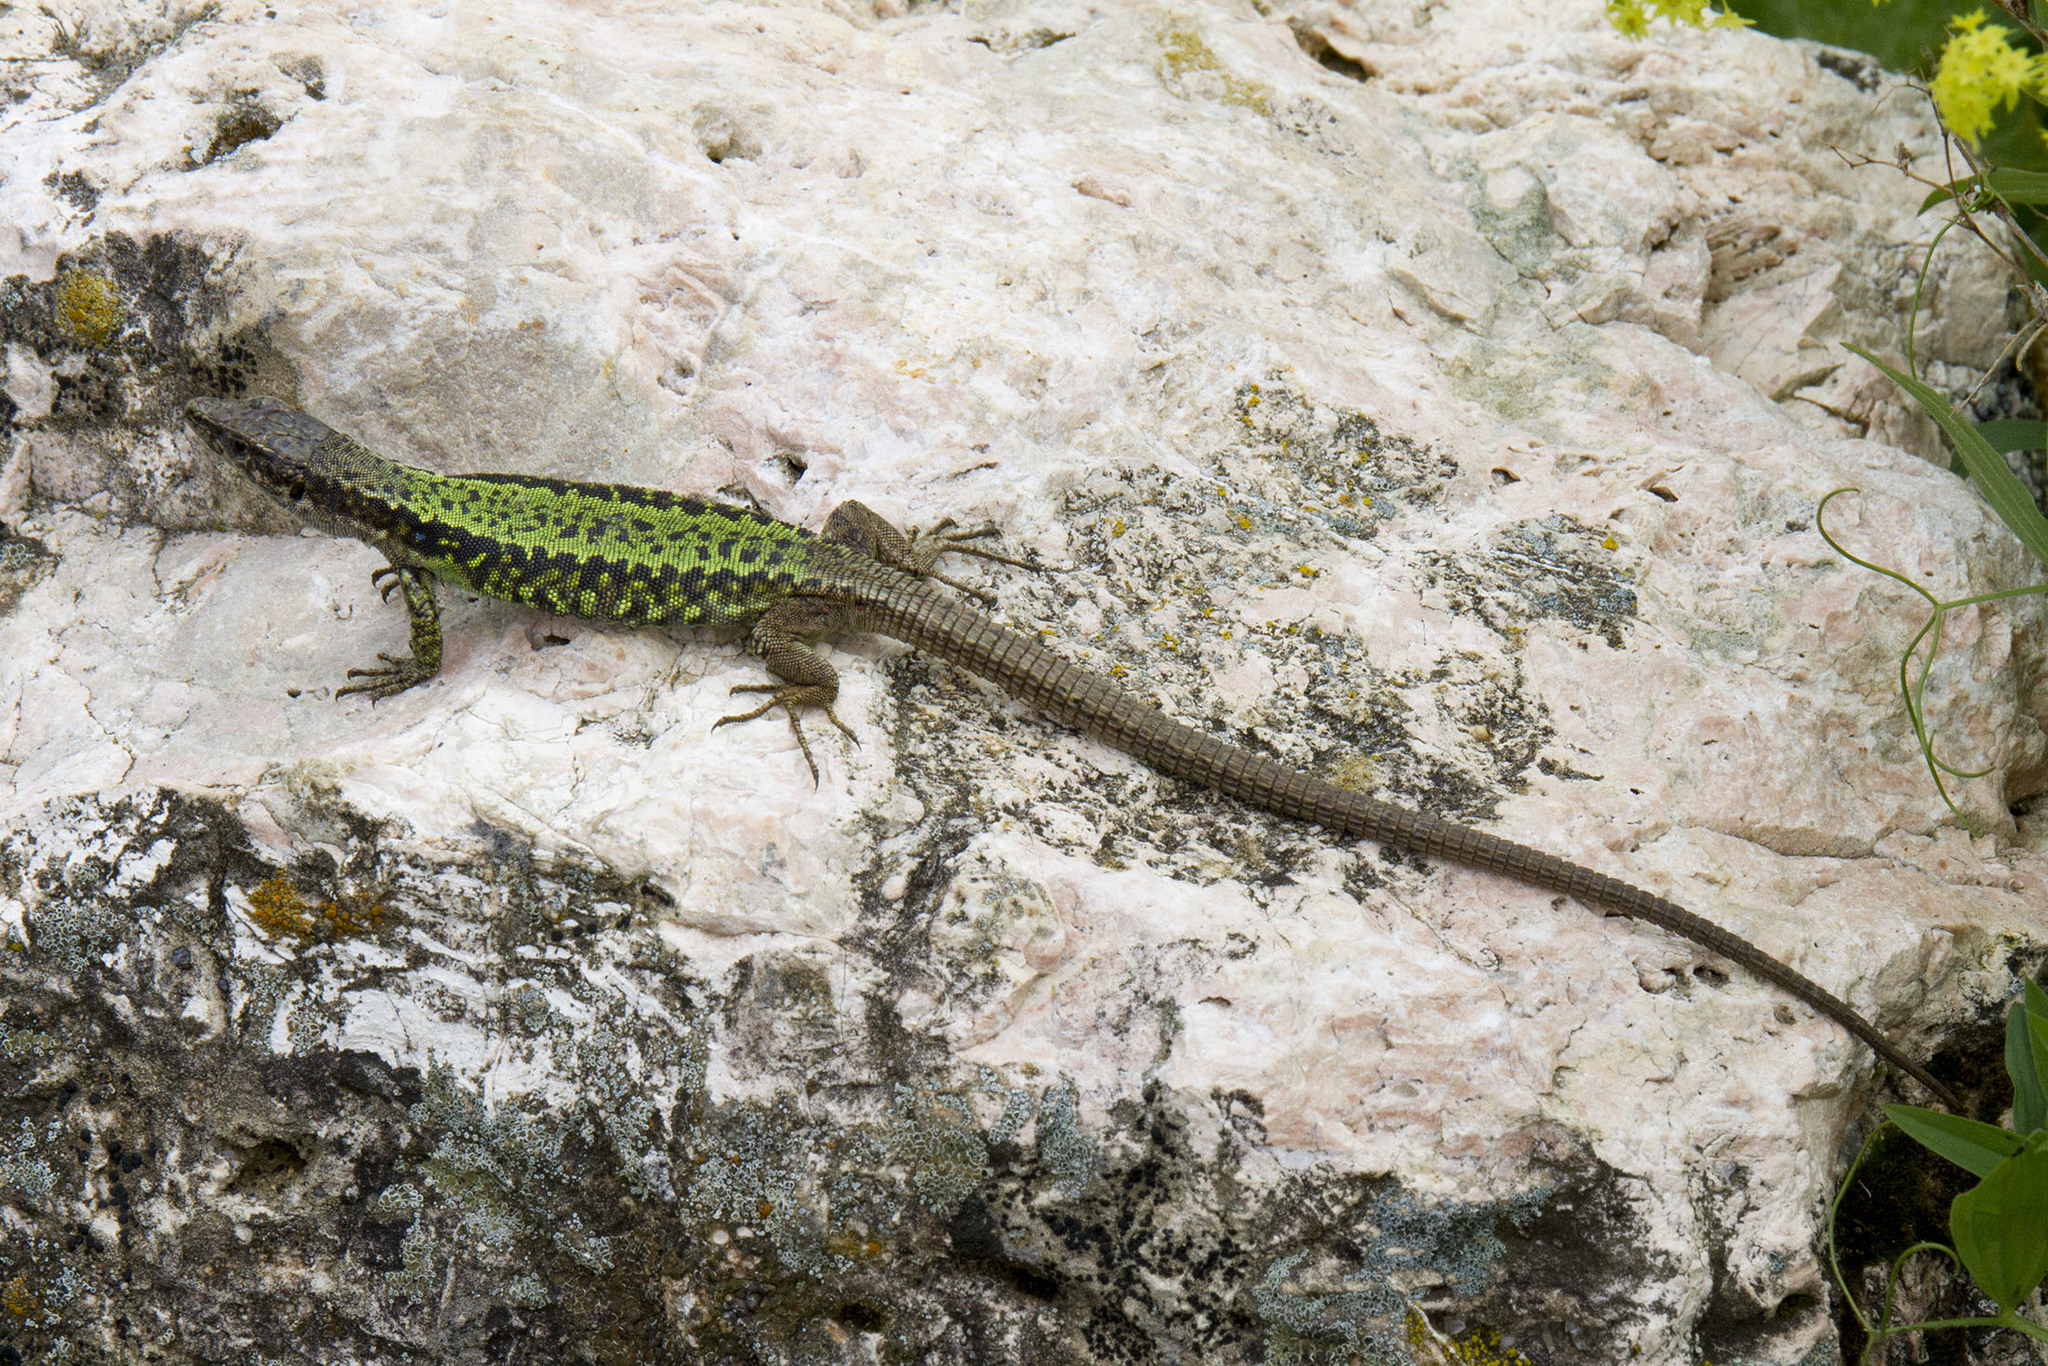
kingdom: Animalia
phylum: Chordata
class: Squamata
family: Lacertidae
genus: Darevskia
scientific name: Darevskia brauneri
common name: Brauner's rock lizard
